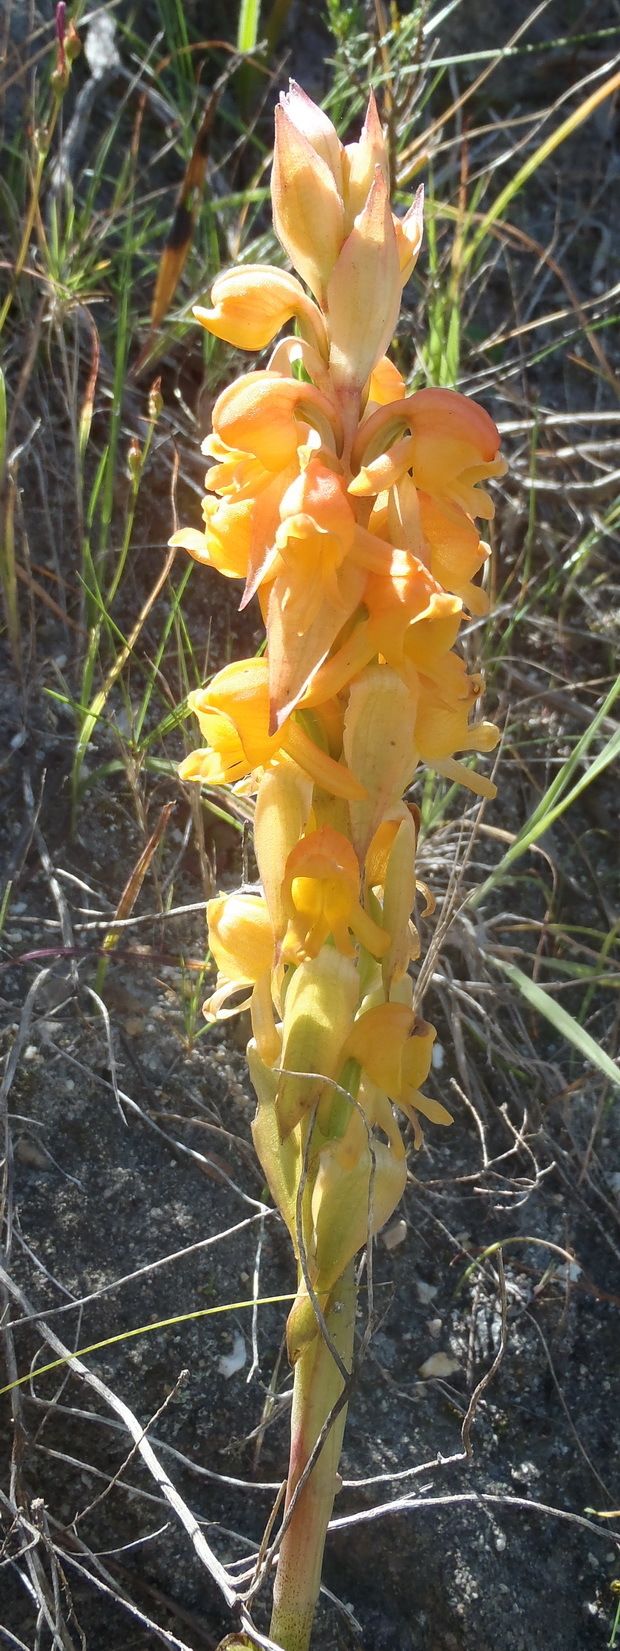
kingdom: Plantae
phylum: Tracheophyta
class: Liliopsida
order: Asparagales
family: Orchidaceae
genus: Satyrium
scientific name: Satyrium coriifolium
